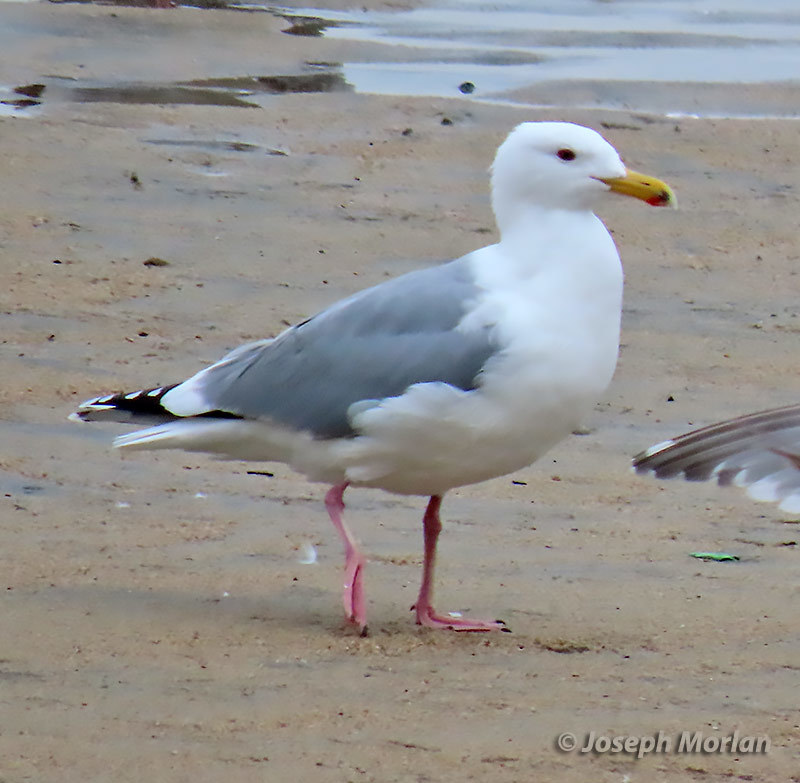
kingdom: Animalia
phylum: Chordata
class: Aves
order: Charadriiformes
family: Laridae
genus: Larus
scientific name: Larus
